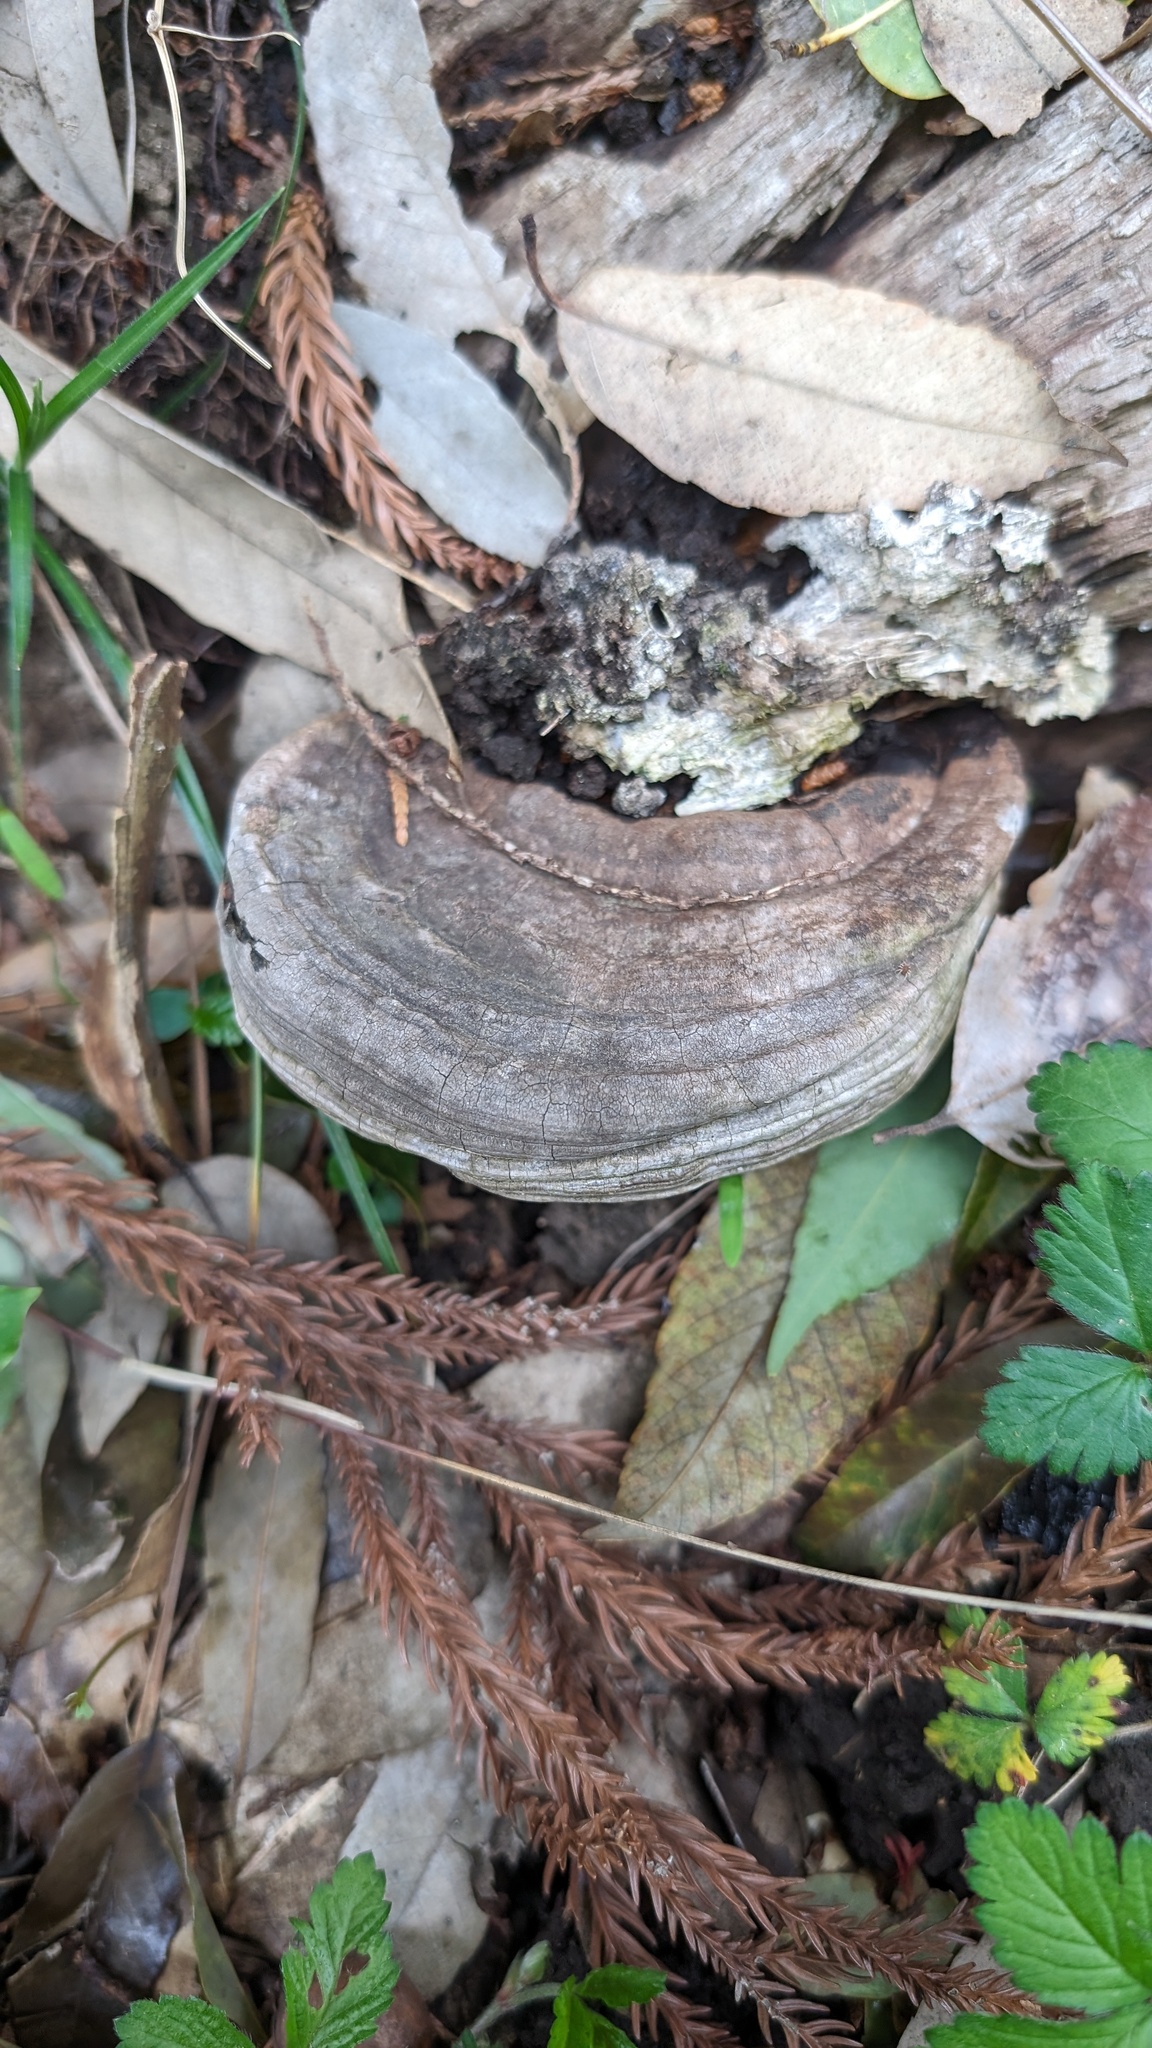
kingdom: Fungi
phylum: Basidiomycota
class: Agaricomycetes
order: Polyporales
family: Polyporaceae
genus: Ganoderma
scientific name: Ganoderma applanatum
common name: Artist's bracket
